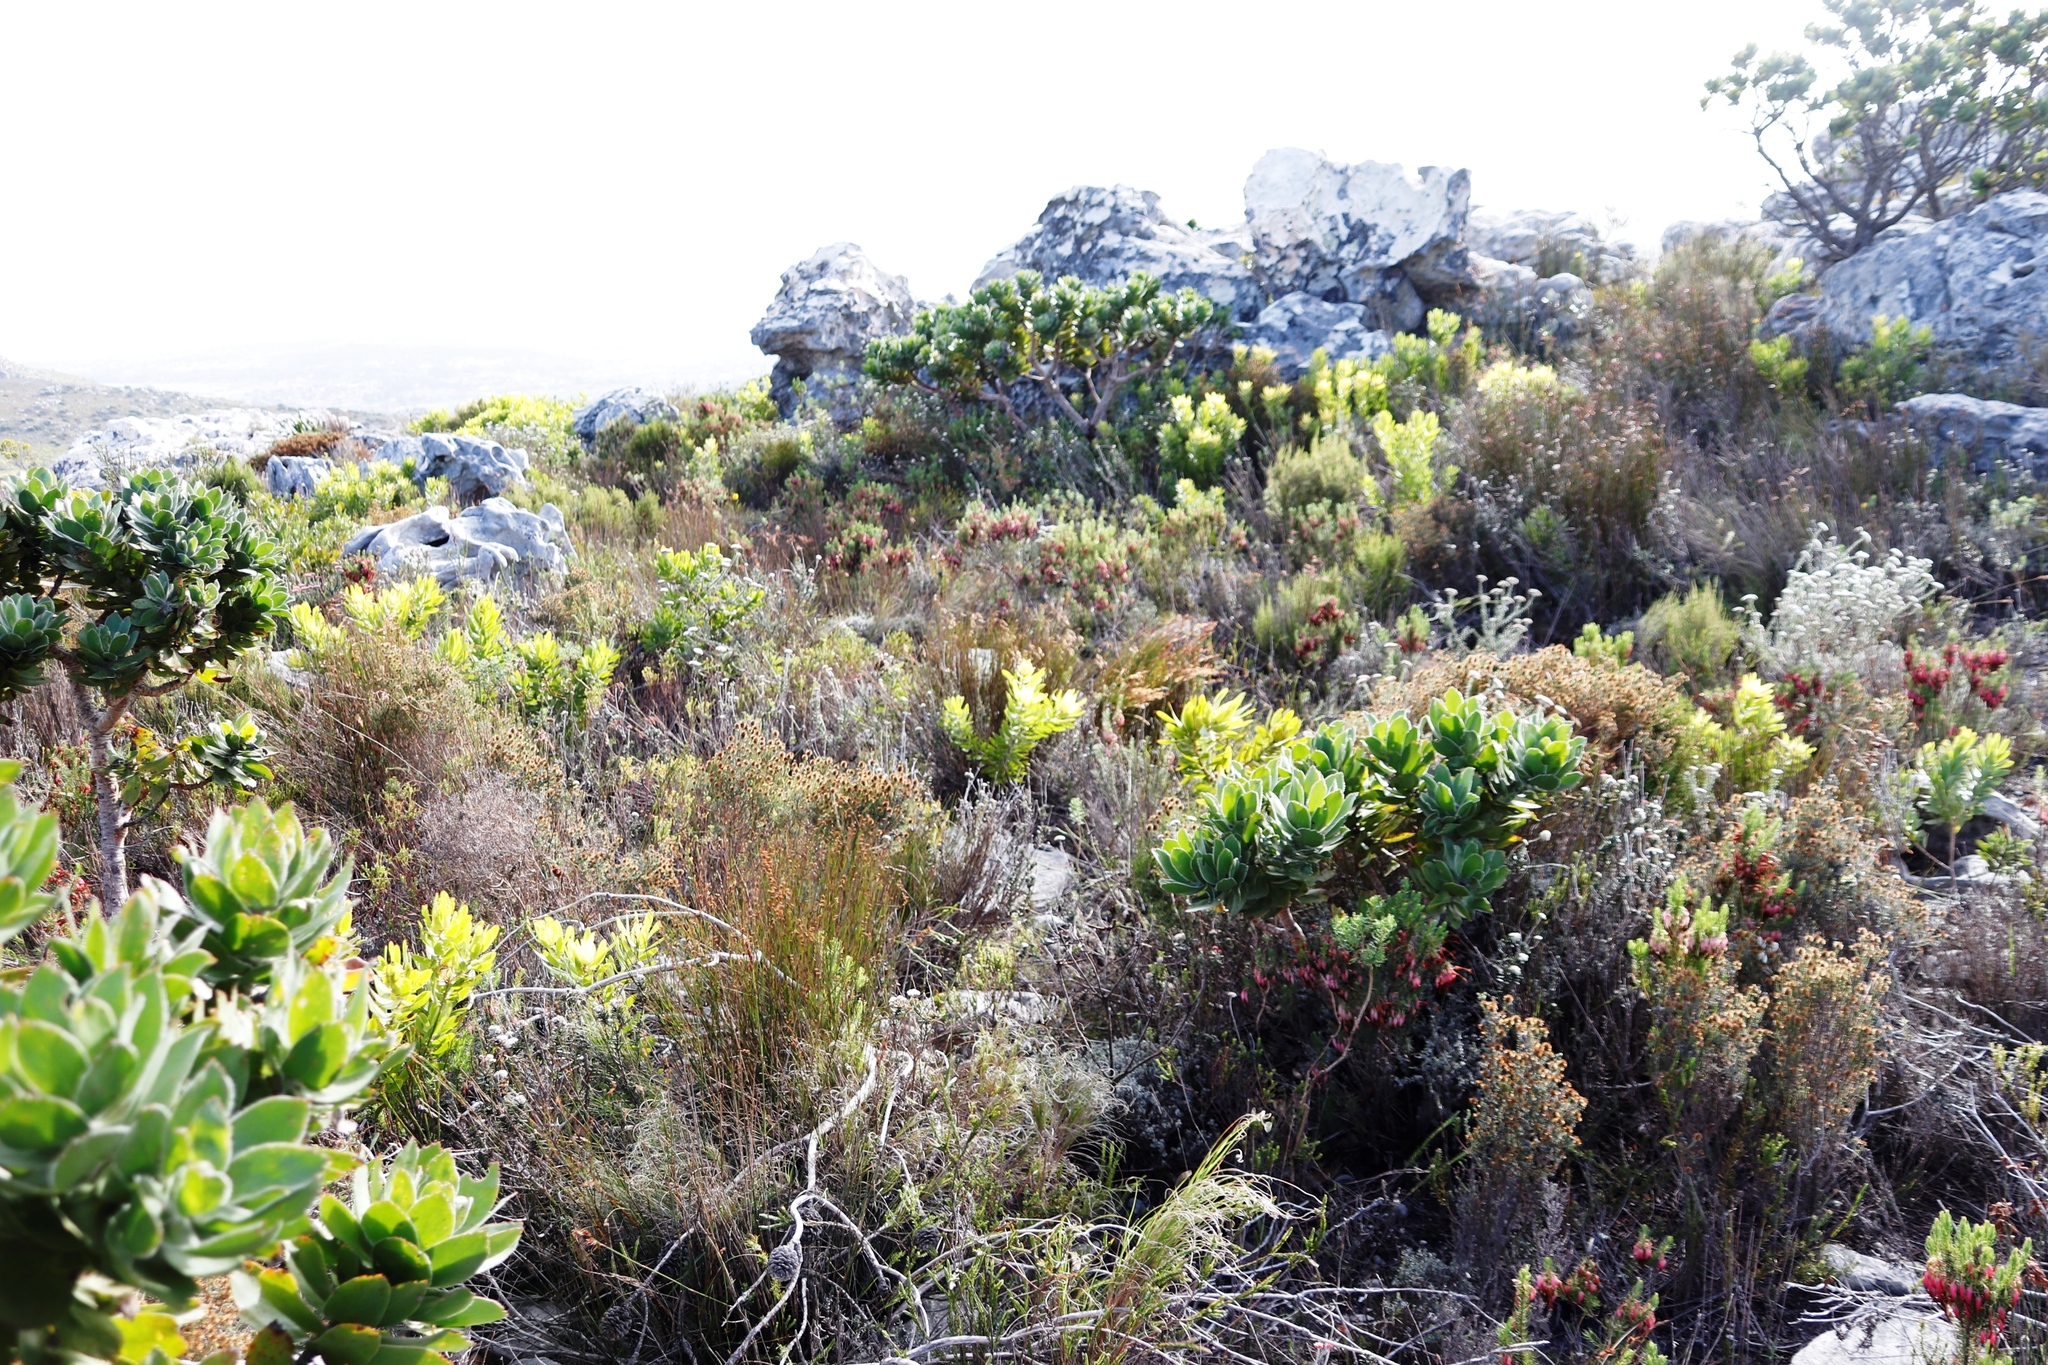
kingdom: Plantae
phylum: Tracheophyta
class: Magnoliopsida
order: Proteales
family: Proteaceae
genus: Leucospermum
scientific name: Leucospermum conocarpodendron
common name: Tree pincushion
